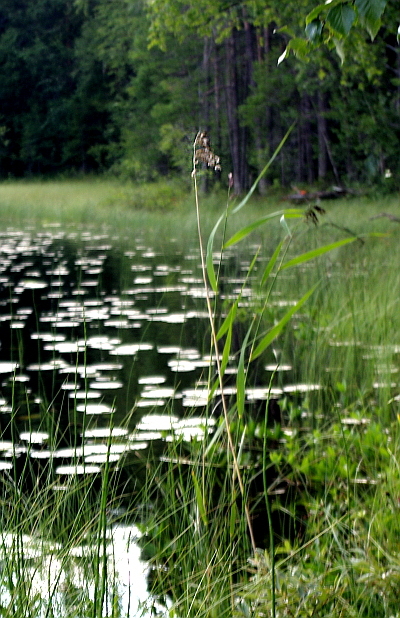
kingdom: Plantae
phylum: Tracheophyta
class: Liliopsida
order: Poales
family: Poaceae
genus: Phragmites
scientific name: Phragmites australis
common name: Common reed
